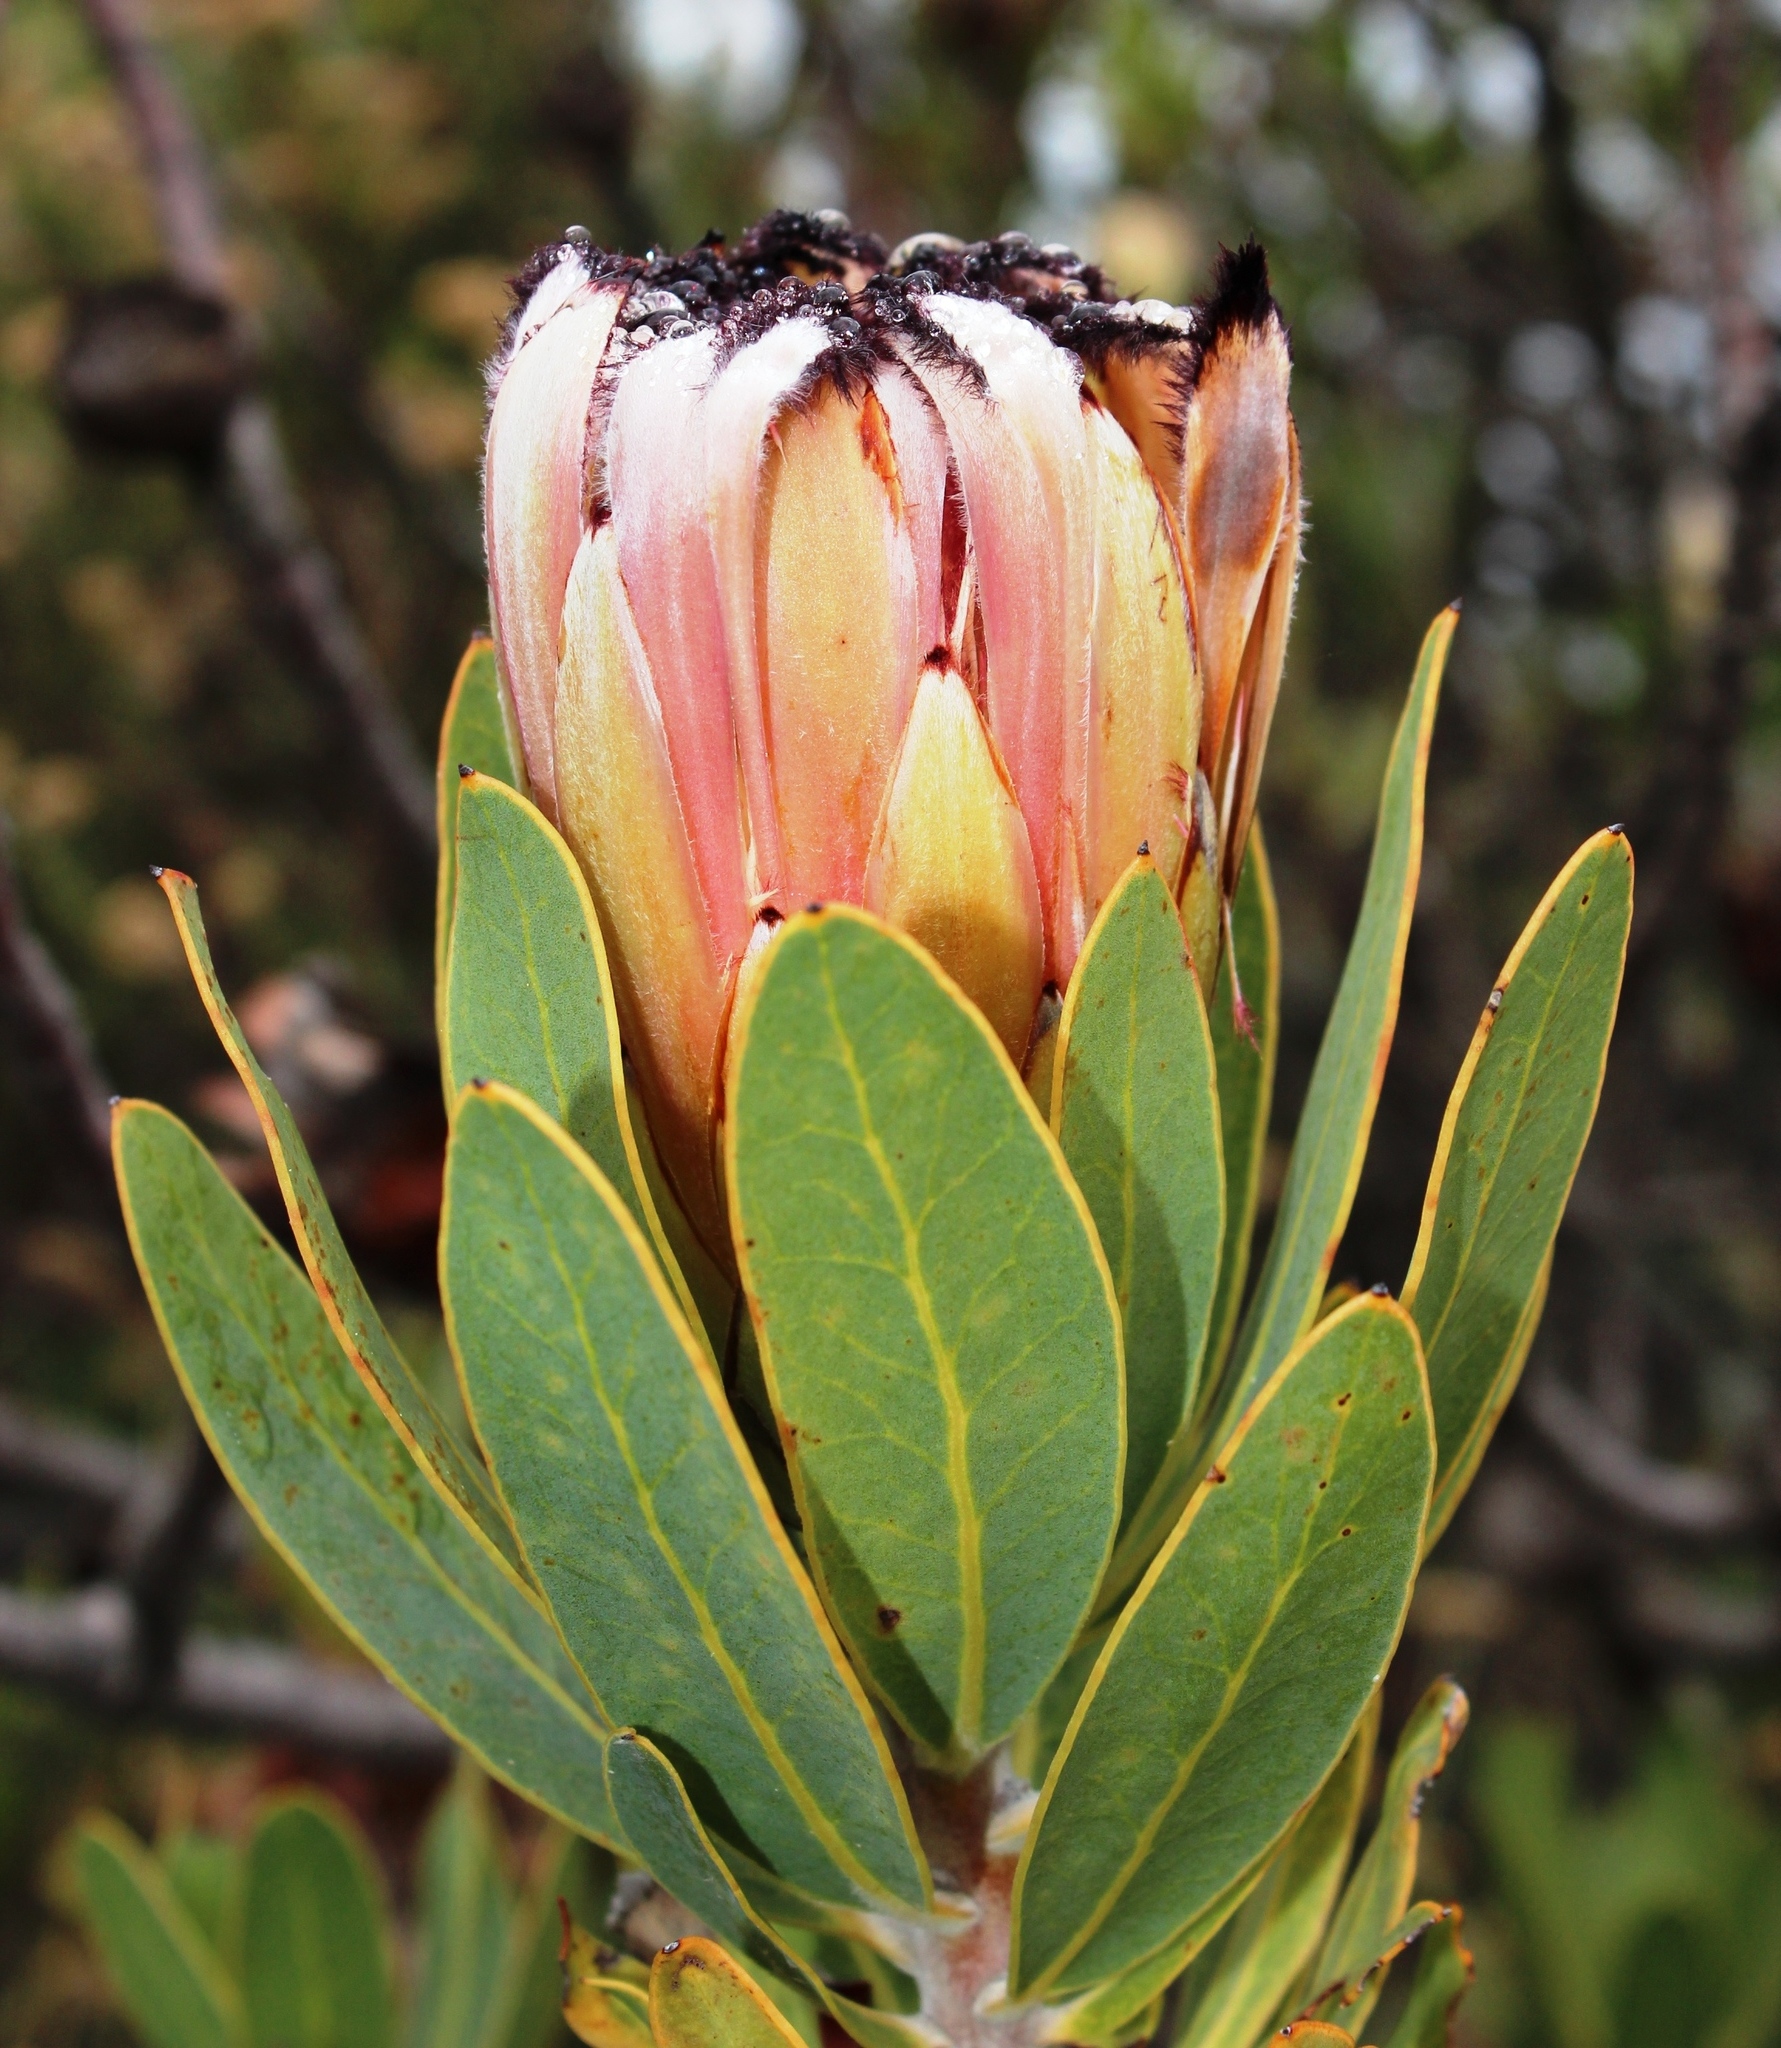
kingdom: Plantae
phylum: Tracheophyta
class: Magnoliopsida
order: Proteales
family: Proteaceae
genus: Protea
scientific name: Protea laurifolia
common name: Grey-leaf sugarbsh
